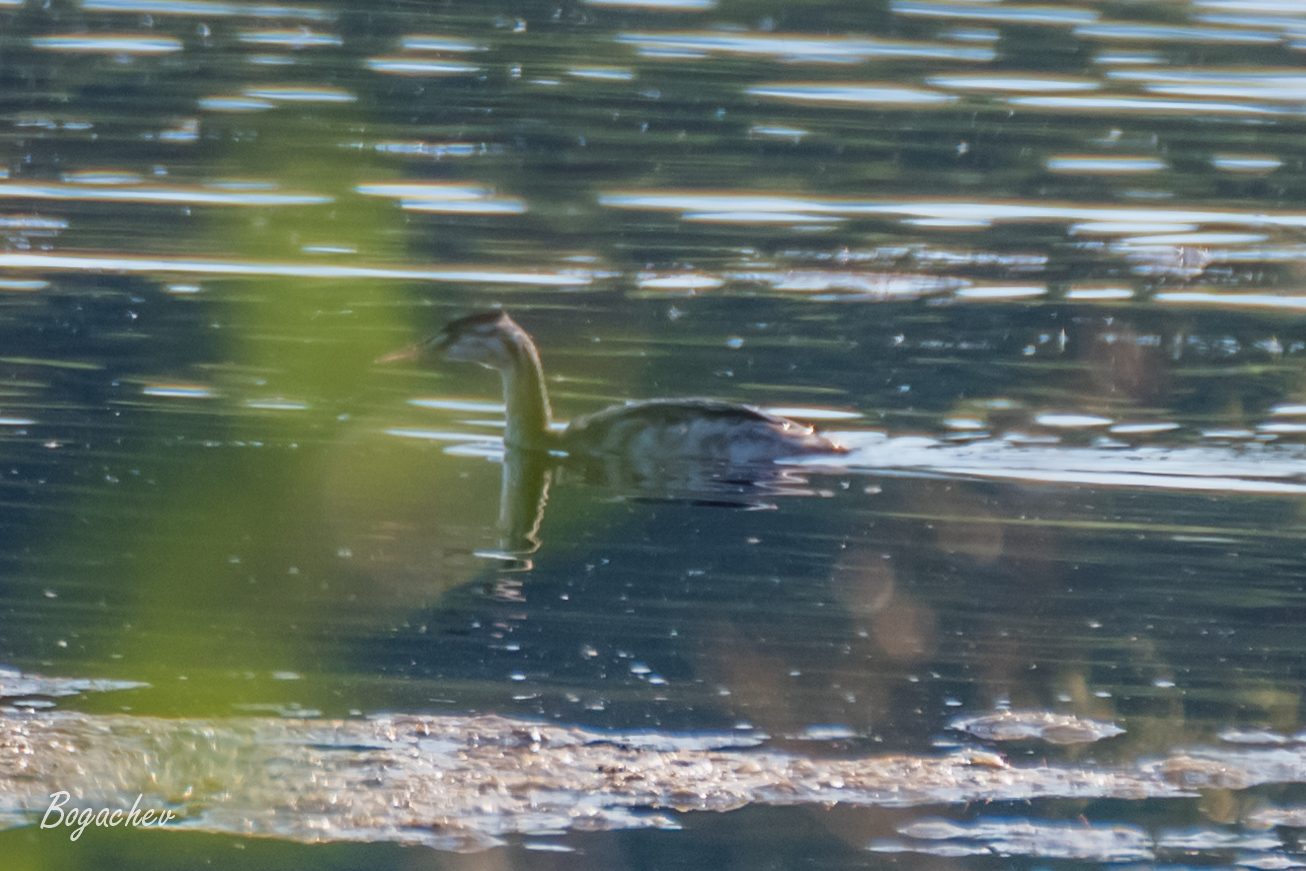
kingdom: Animalia
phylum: Chordata
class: Aves
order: Podicipediformes
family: Podicipedidae
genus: Podiceps
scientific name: Podiceps cristatus
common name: Great crested grebe
